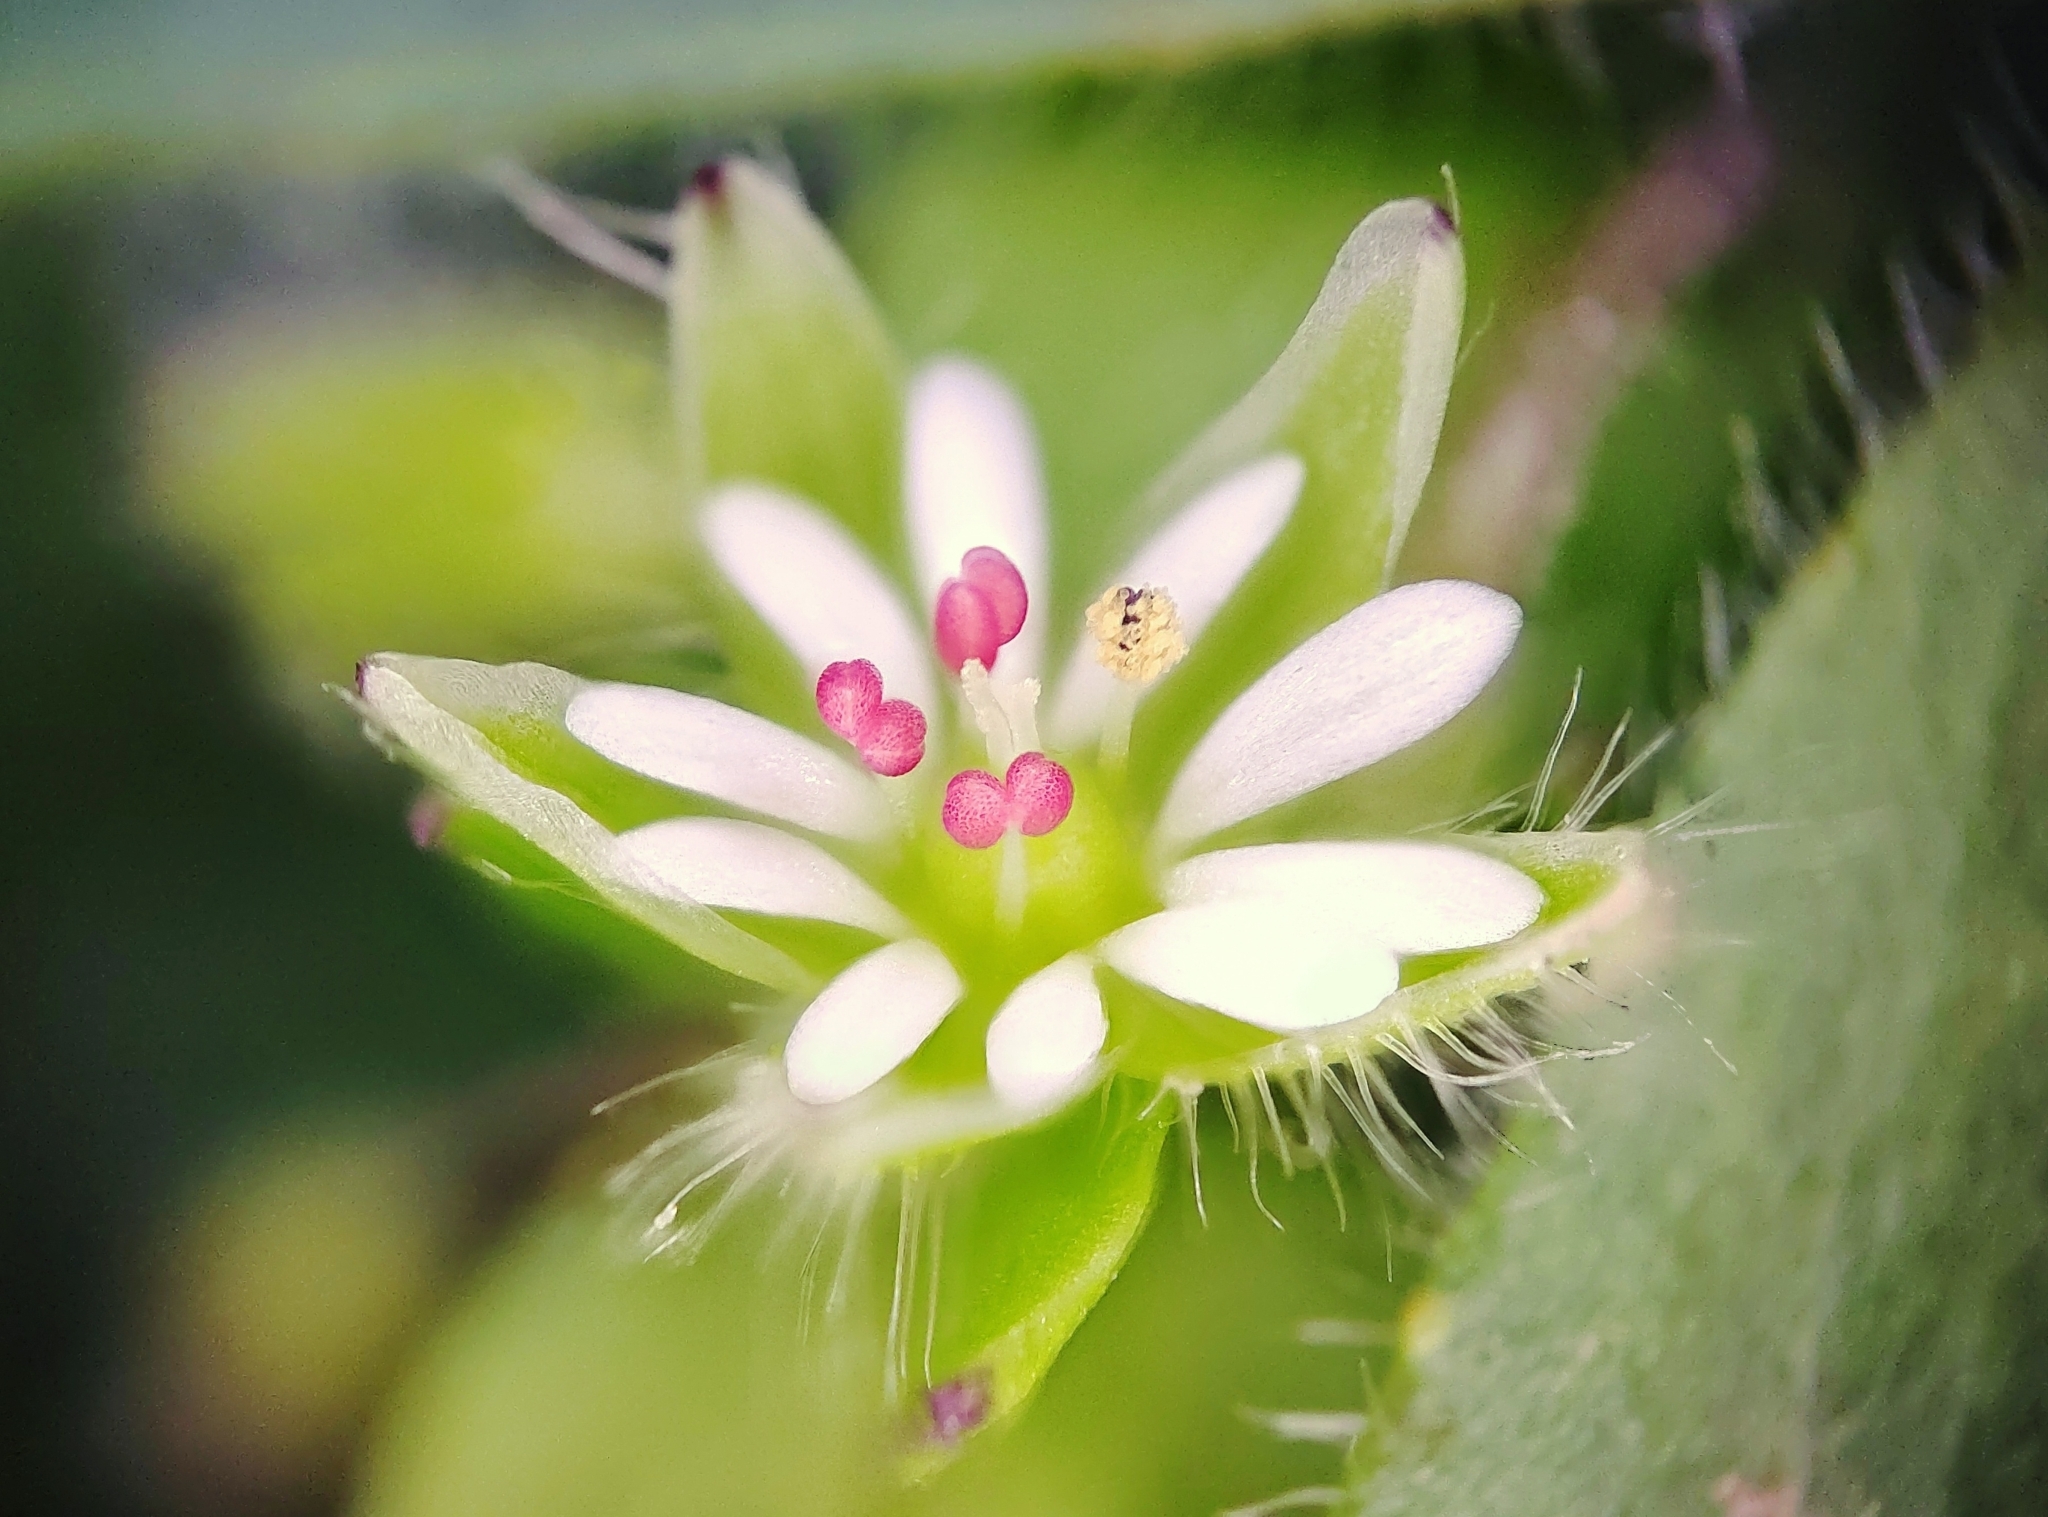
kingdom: Plantae
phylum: Tracheophyta
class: Magnoliopsida
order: Caryophyllales
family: Caryophyllaceae
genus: Stellaria
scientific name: Stellaria media
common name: Common chickweed
